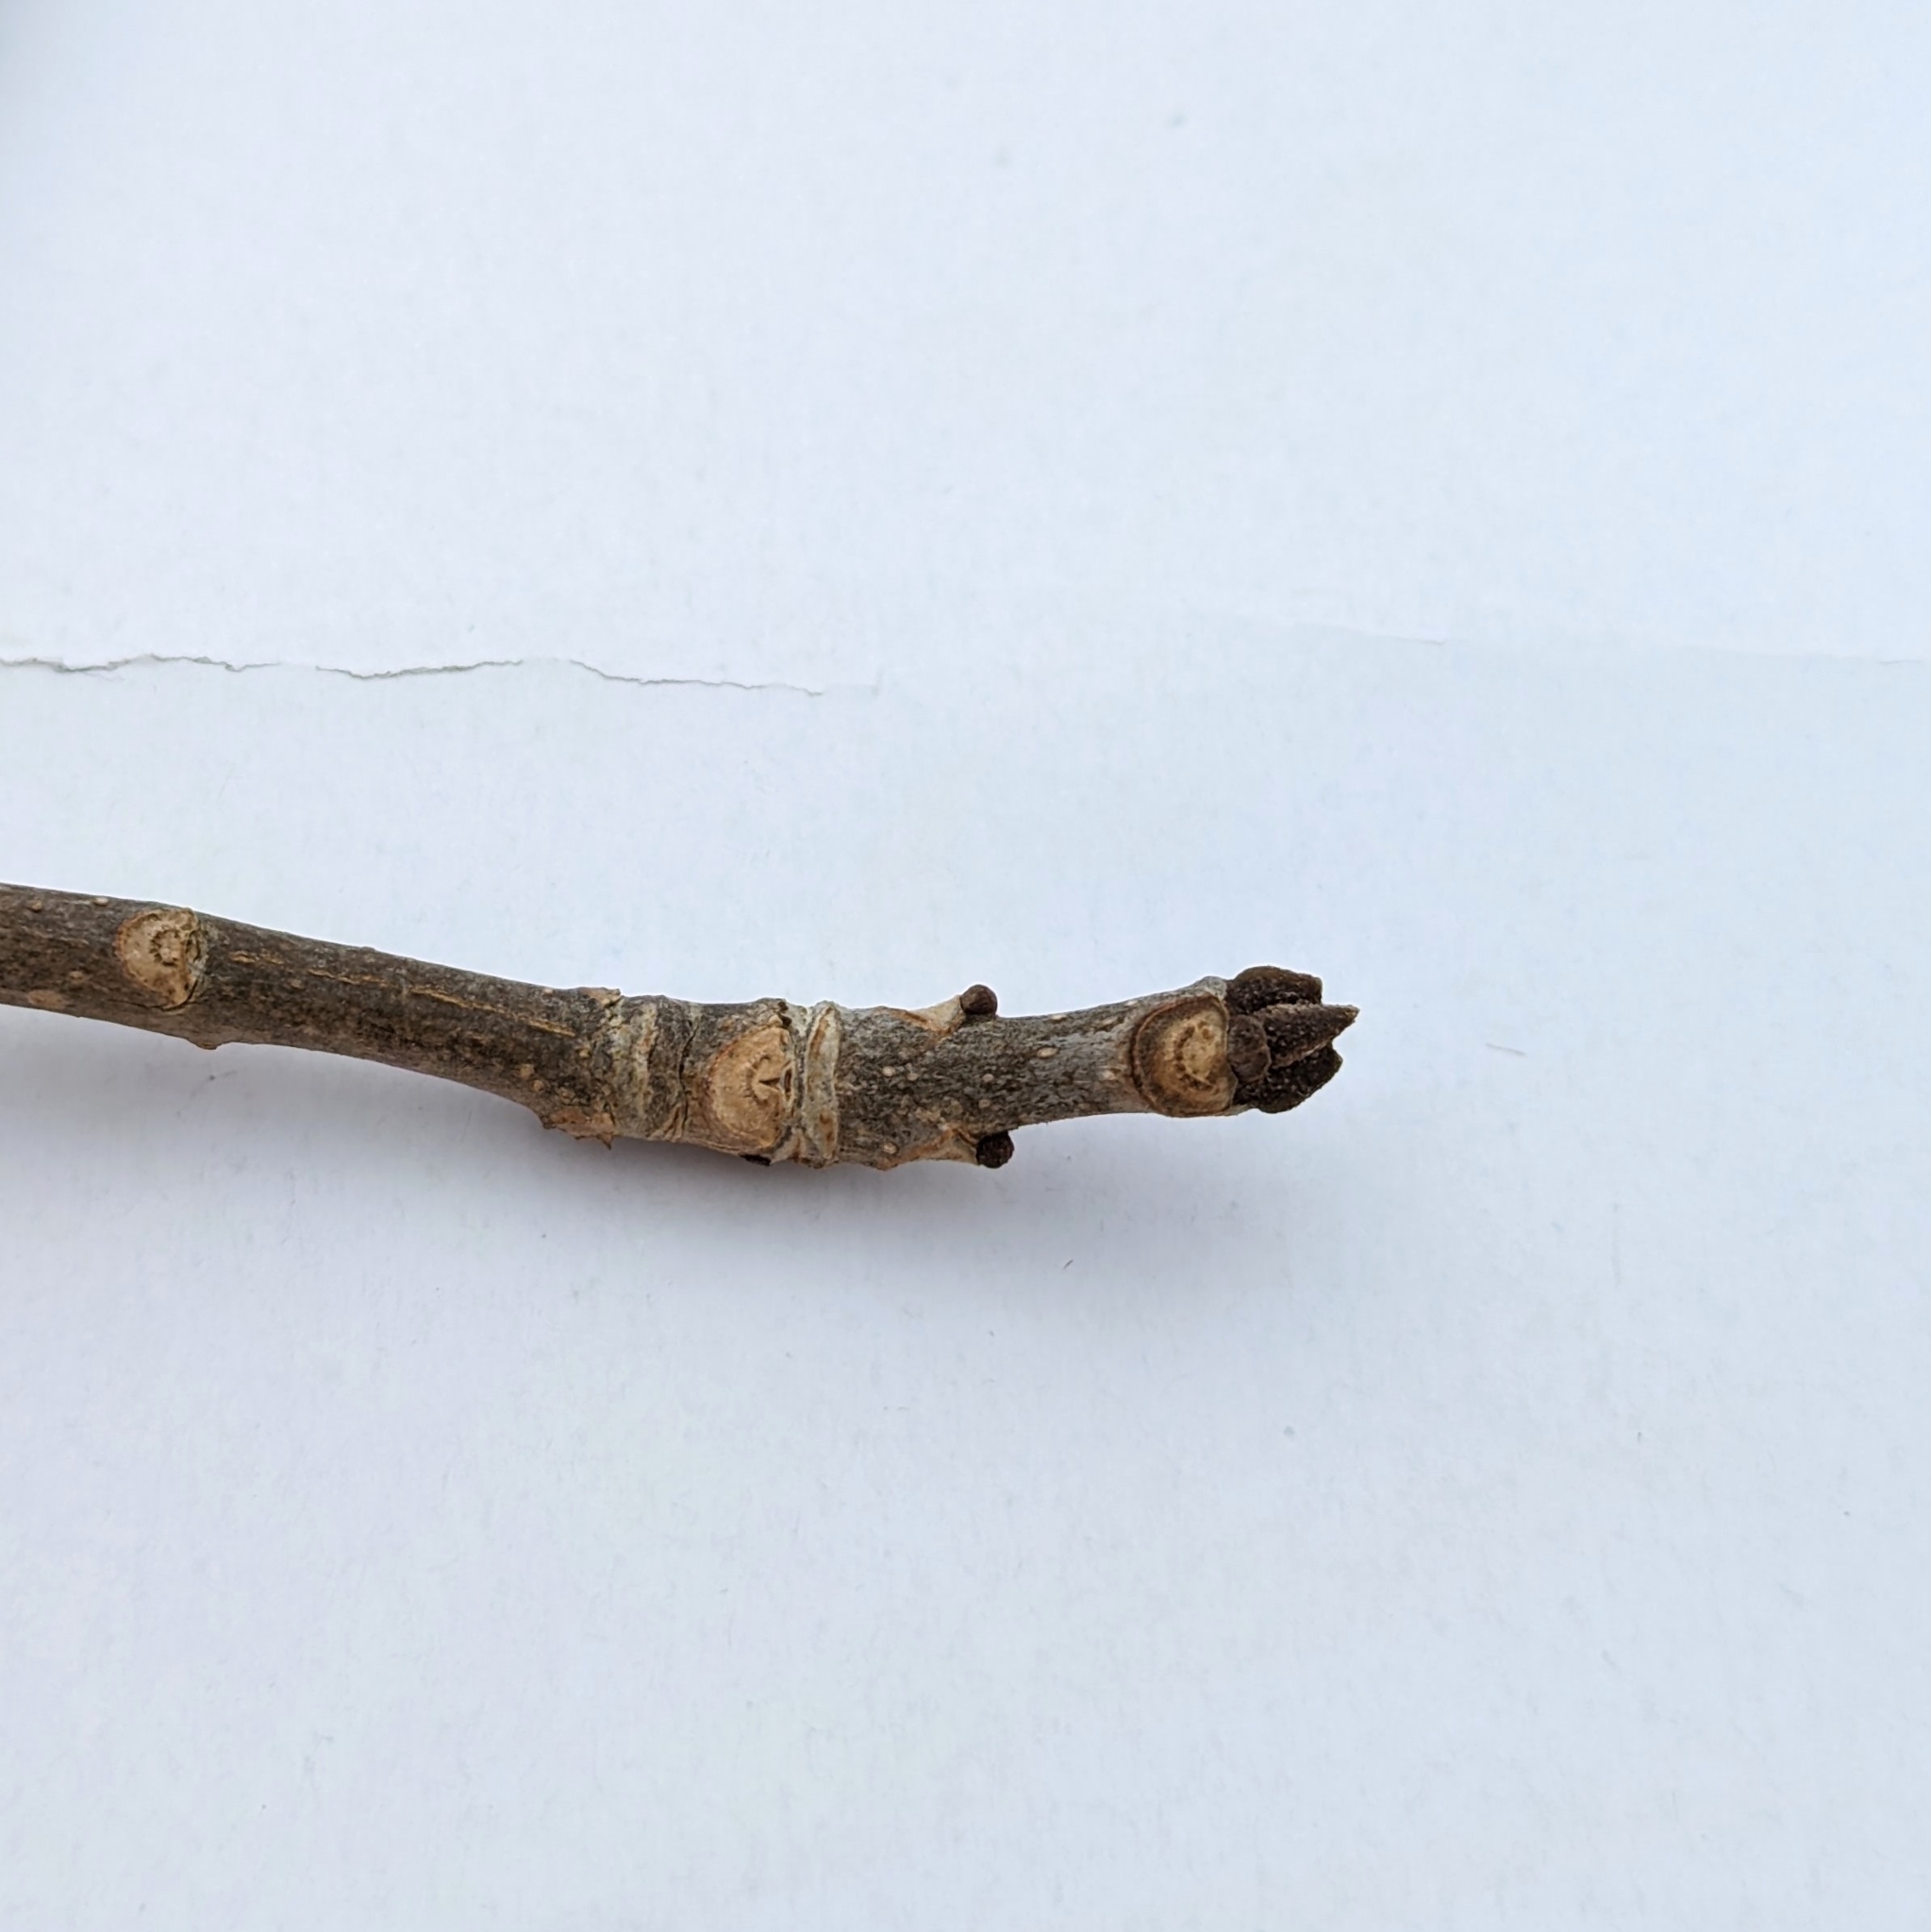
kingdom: Plantae
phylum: Tracheophyta
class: Magnoliopsida
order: Lamiales
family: Oleaceae
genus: Fraxinus
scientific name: Fraxinus pennsylvanica
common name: Green ash
